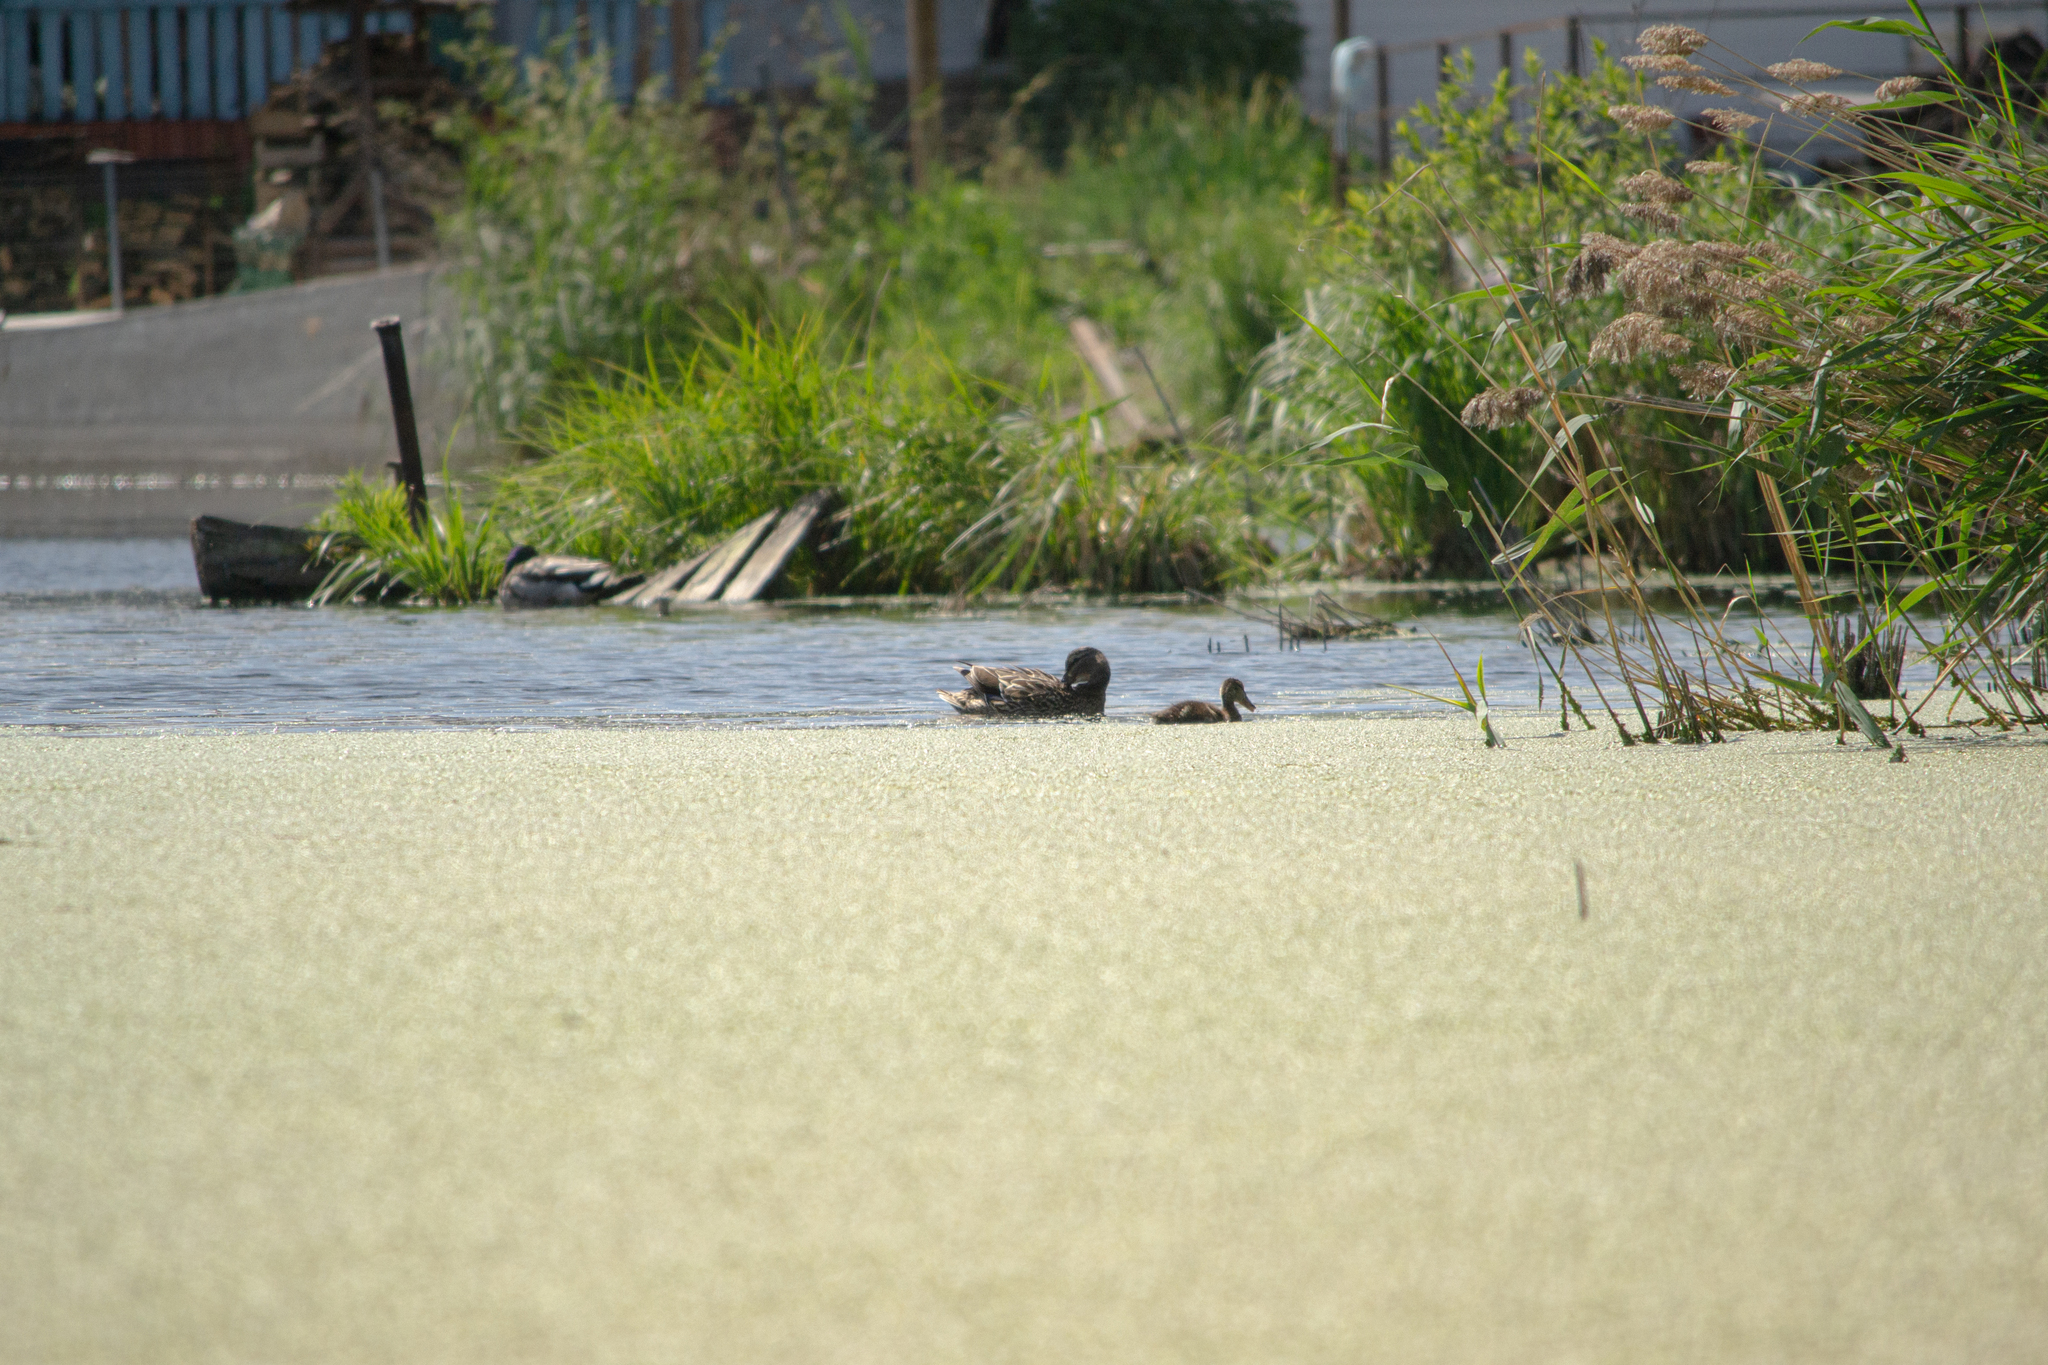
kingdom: Animalia
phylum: Chordata
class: Aves
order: Anseriformes
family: Anatidae
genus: Anas
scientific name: Anas platyrhynchos
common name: Mallard
